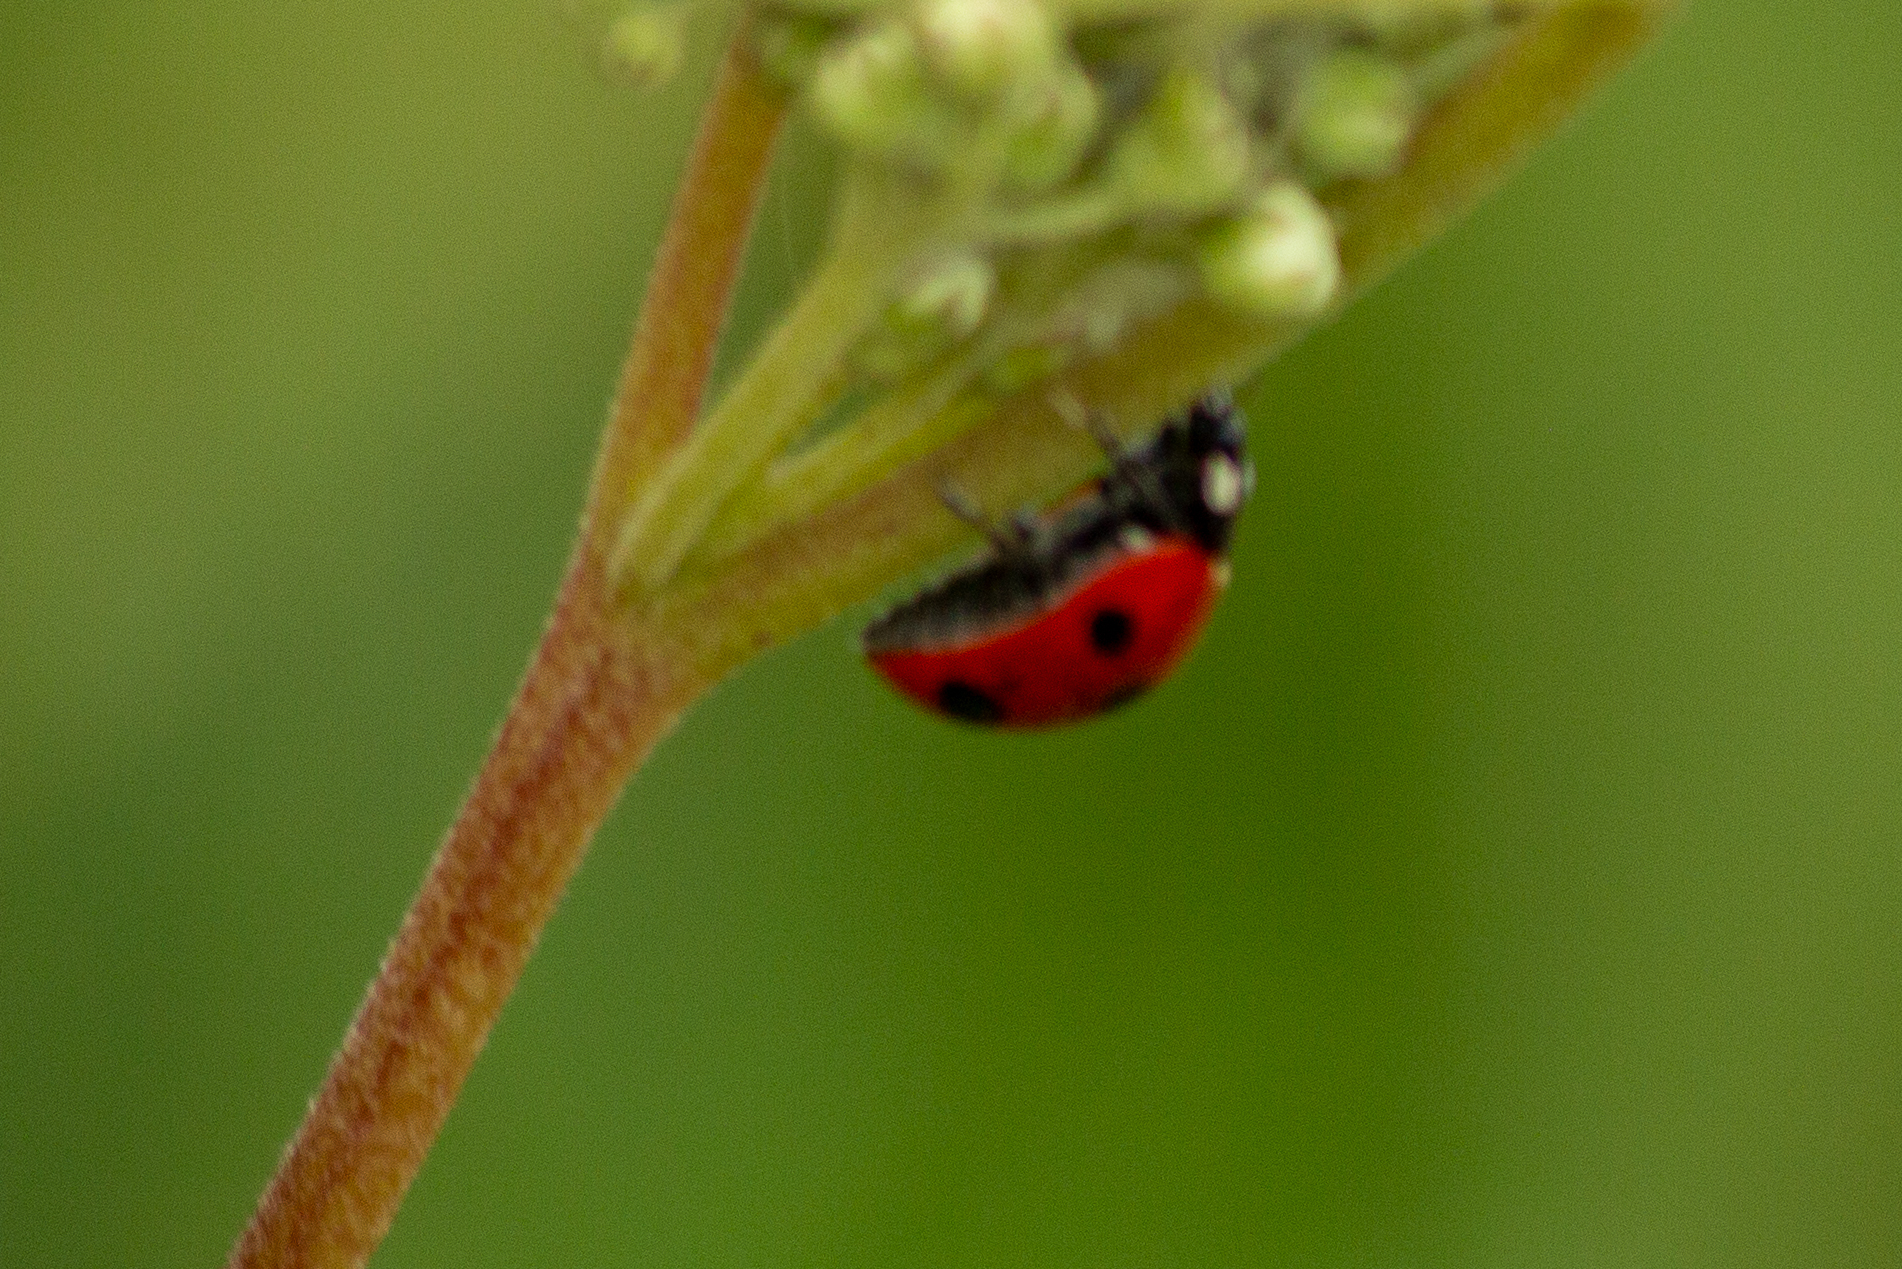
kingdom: Animalia
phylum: Arthropoda
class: Insecta
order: Coleoptera
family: Coccinellidae
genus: Coccinella
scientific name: Coccinella septempunctata
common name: Sevenspotted lady beetle
